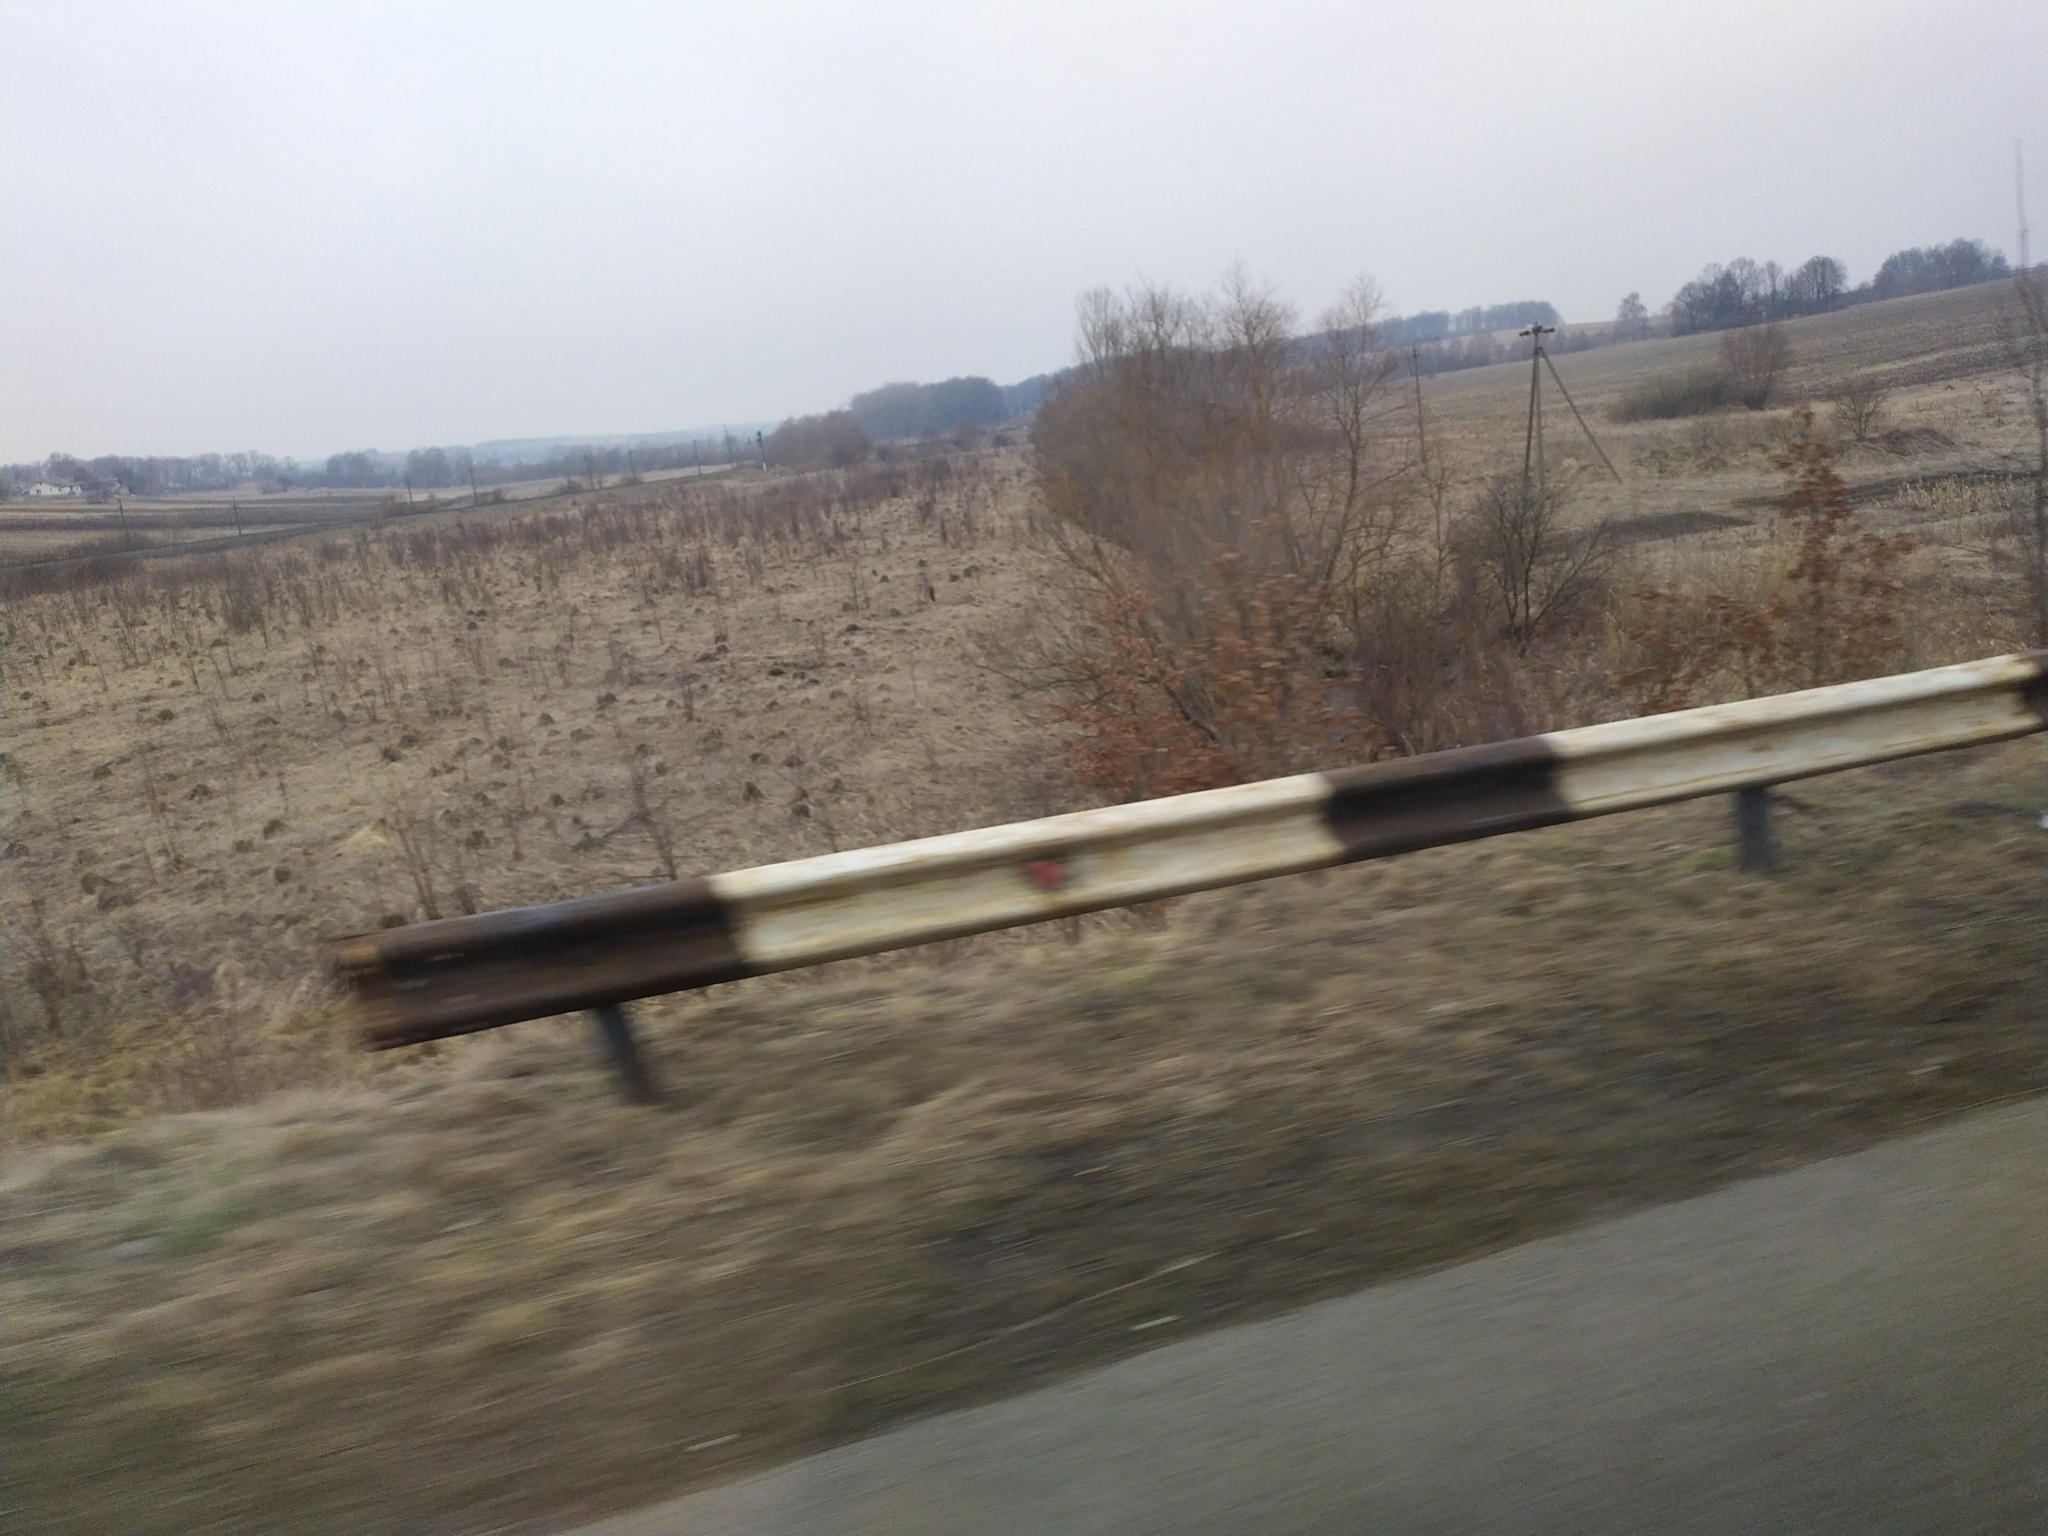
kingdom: Animalia
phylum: Chordata
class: Mammalia
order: Soricomorpha
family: Talpidae
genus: Talpa
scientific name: Talpa europaea
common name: European mole
